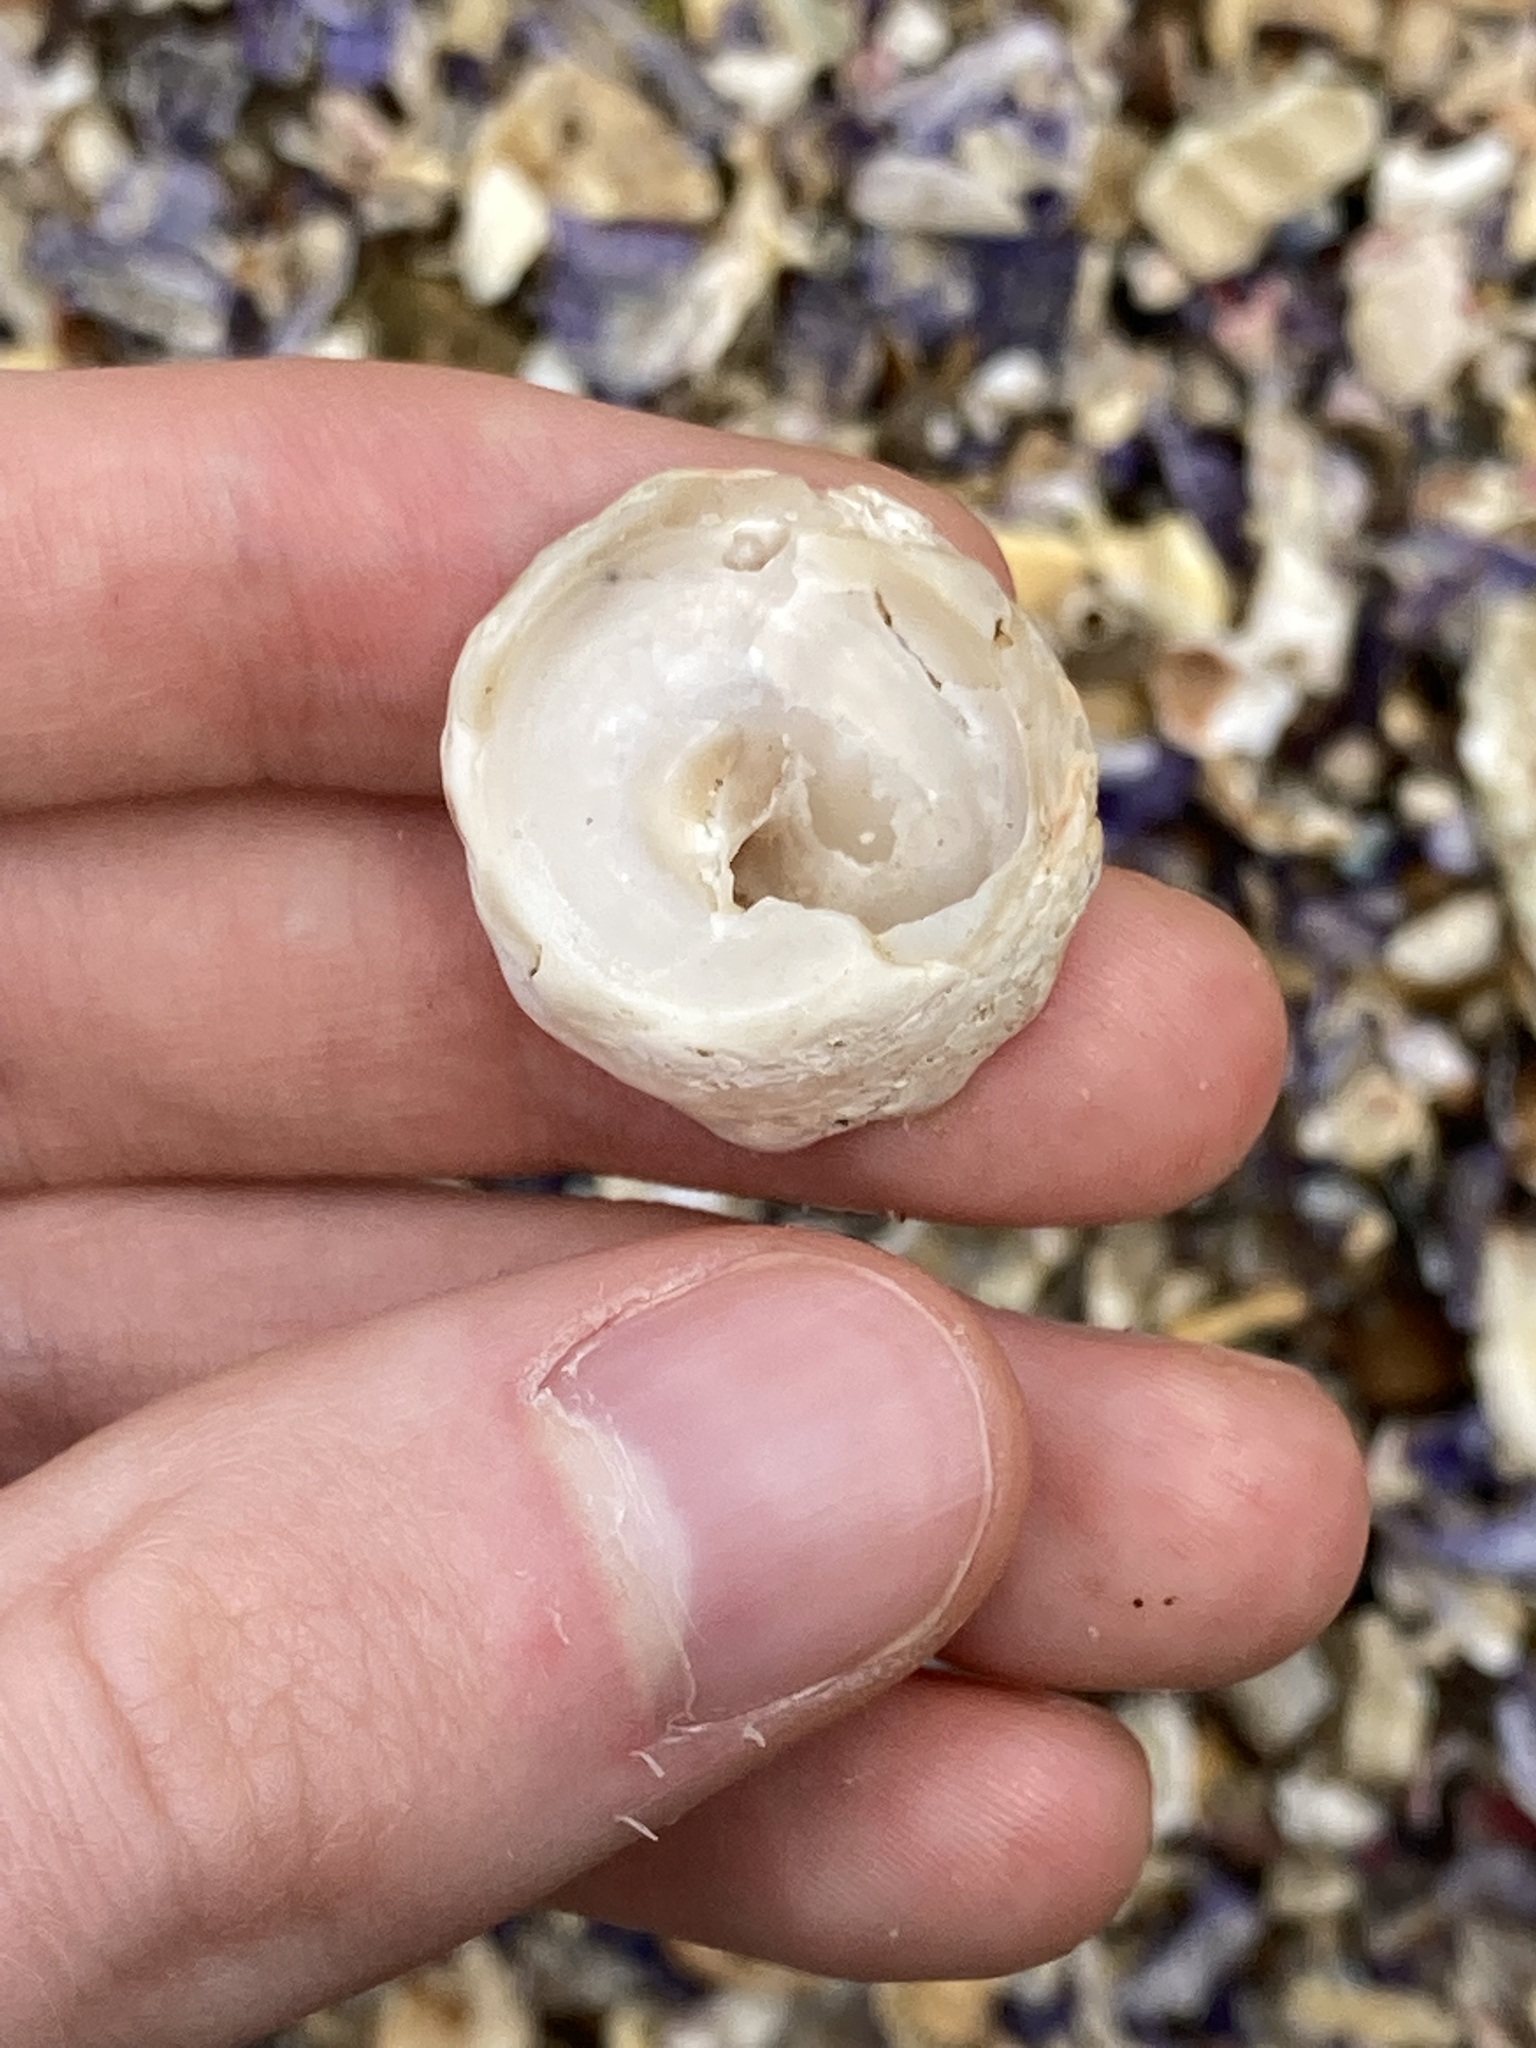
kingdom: Animalia
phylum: Mollusca
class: Gastropoda
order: Trochida
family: Turbinidae
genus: Astralium
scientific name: Astralium tentoriiforme
